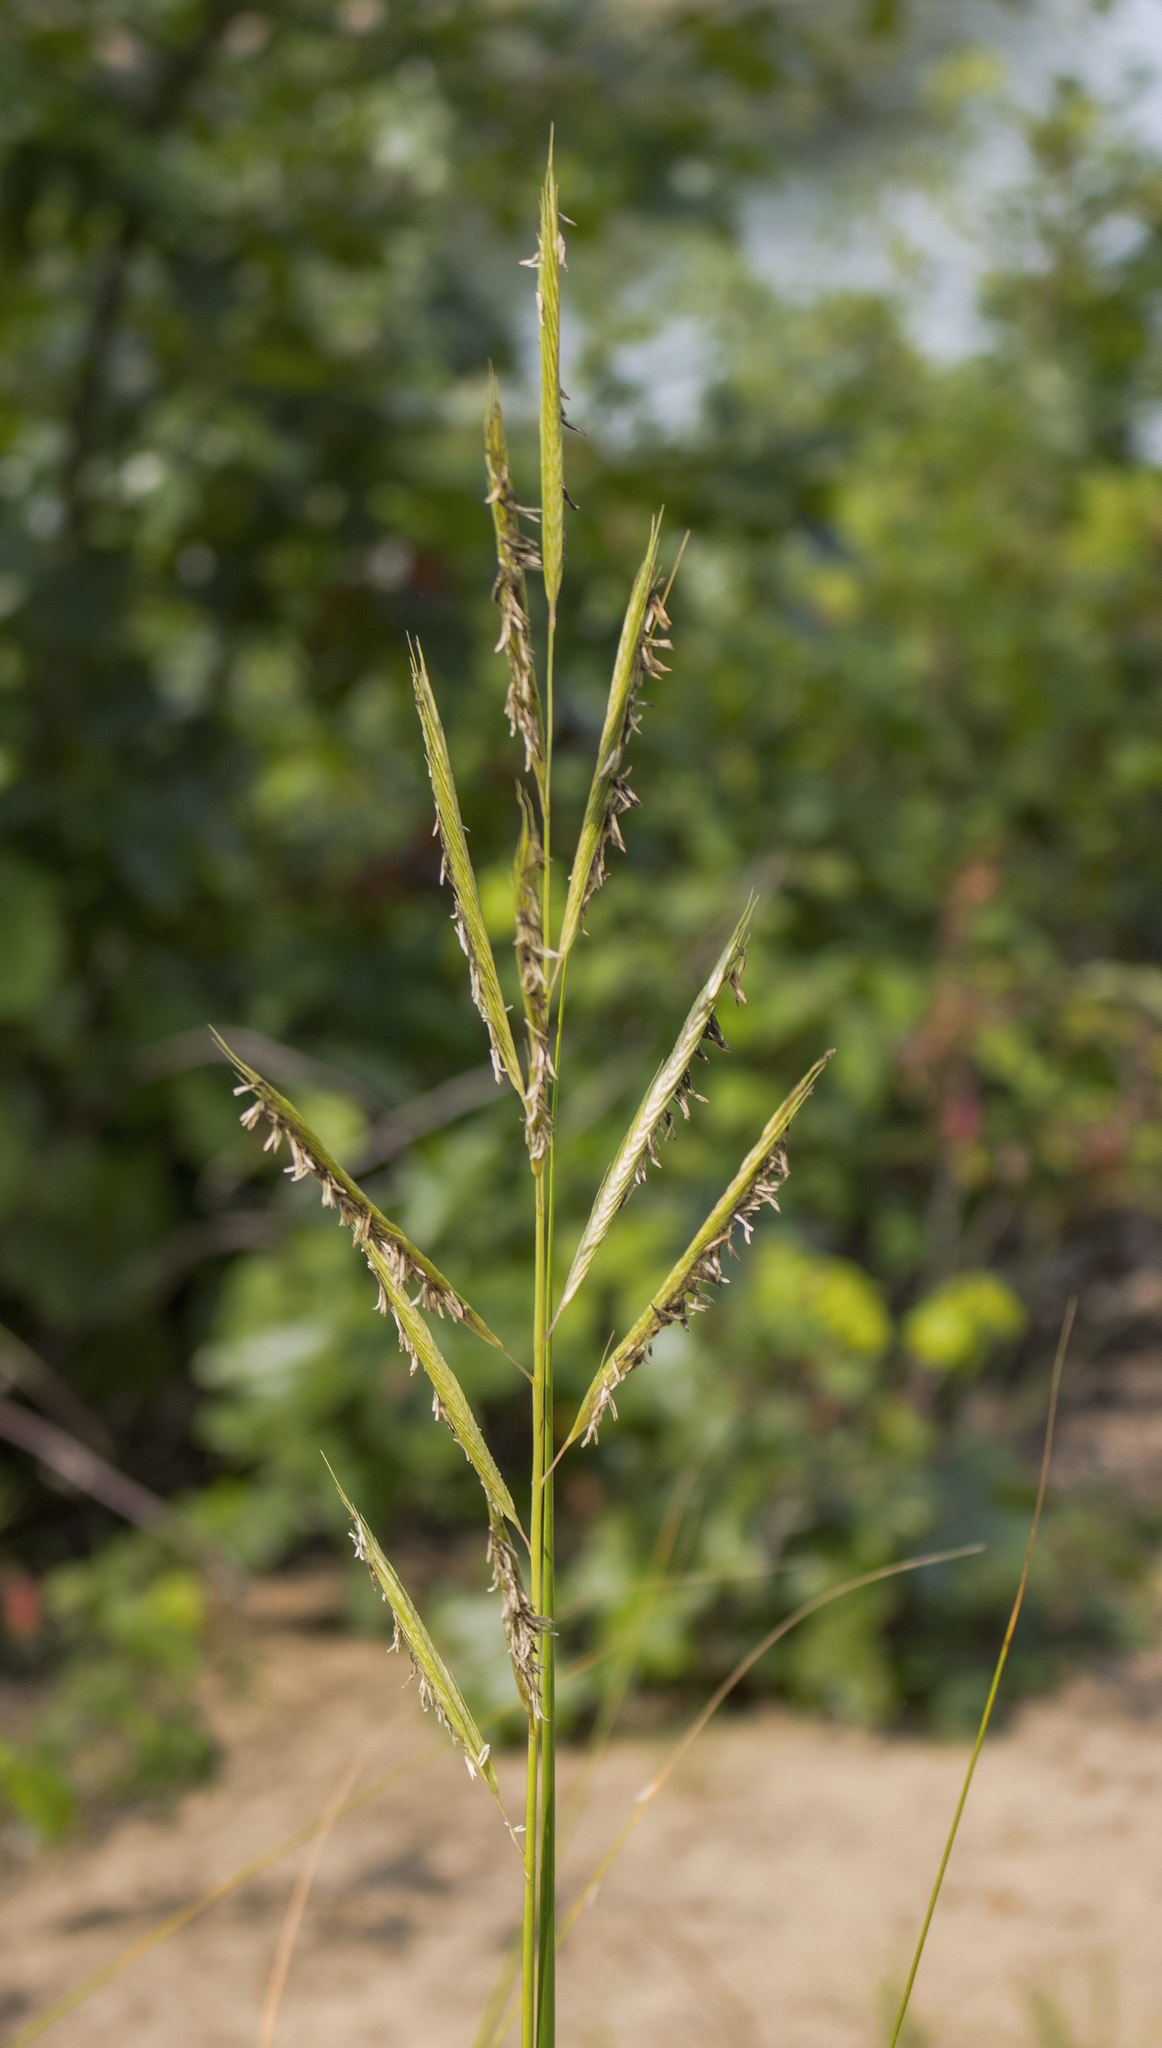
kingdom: Plantae
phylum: Tracheophyta
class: Liliopsida
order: Poales
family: Poaceae
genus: Sporobolus
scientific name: Sporobolus michauxianus
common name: Freshwater cordgrass
